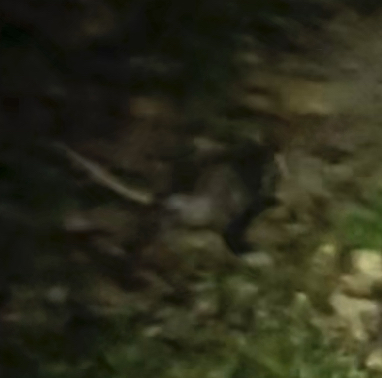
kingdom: Animalia
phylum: Chordata
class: Mammalia
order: Didelphimorphia
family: Didelphidae
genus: Didelphis
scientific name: Didelphis virginiana
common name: Virginia opossum
